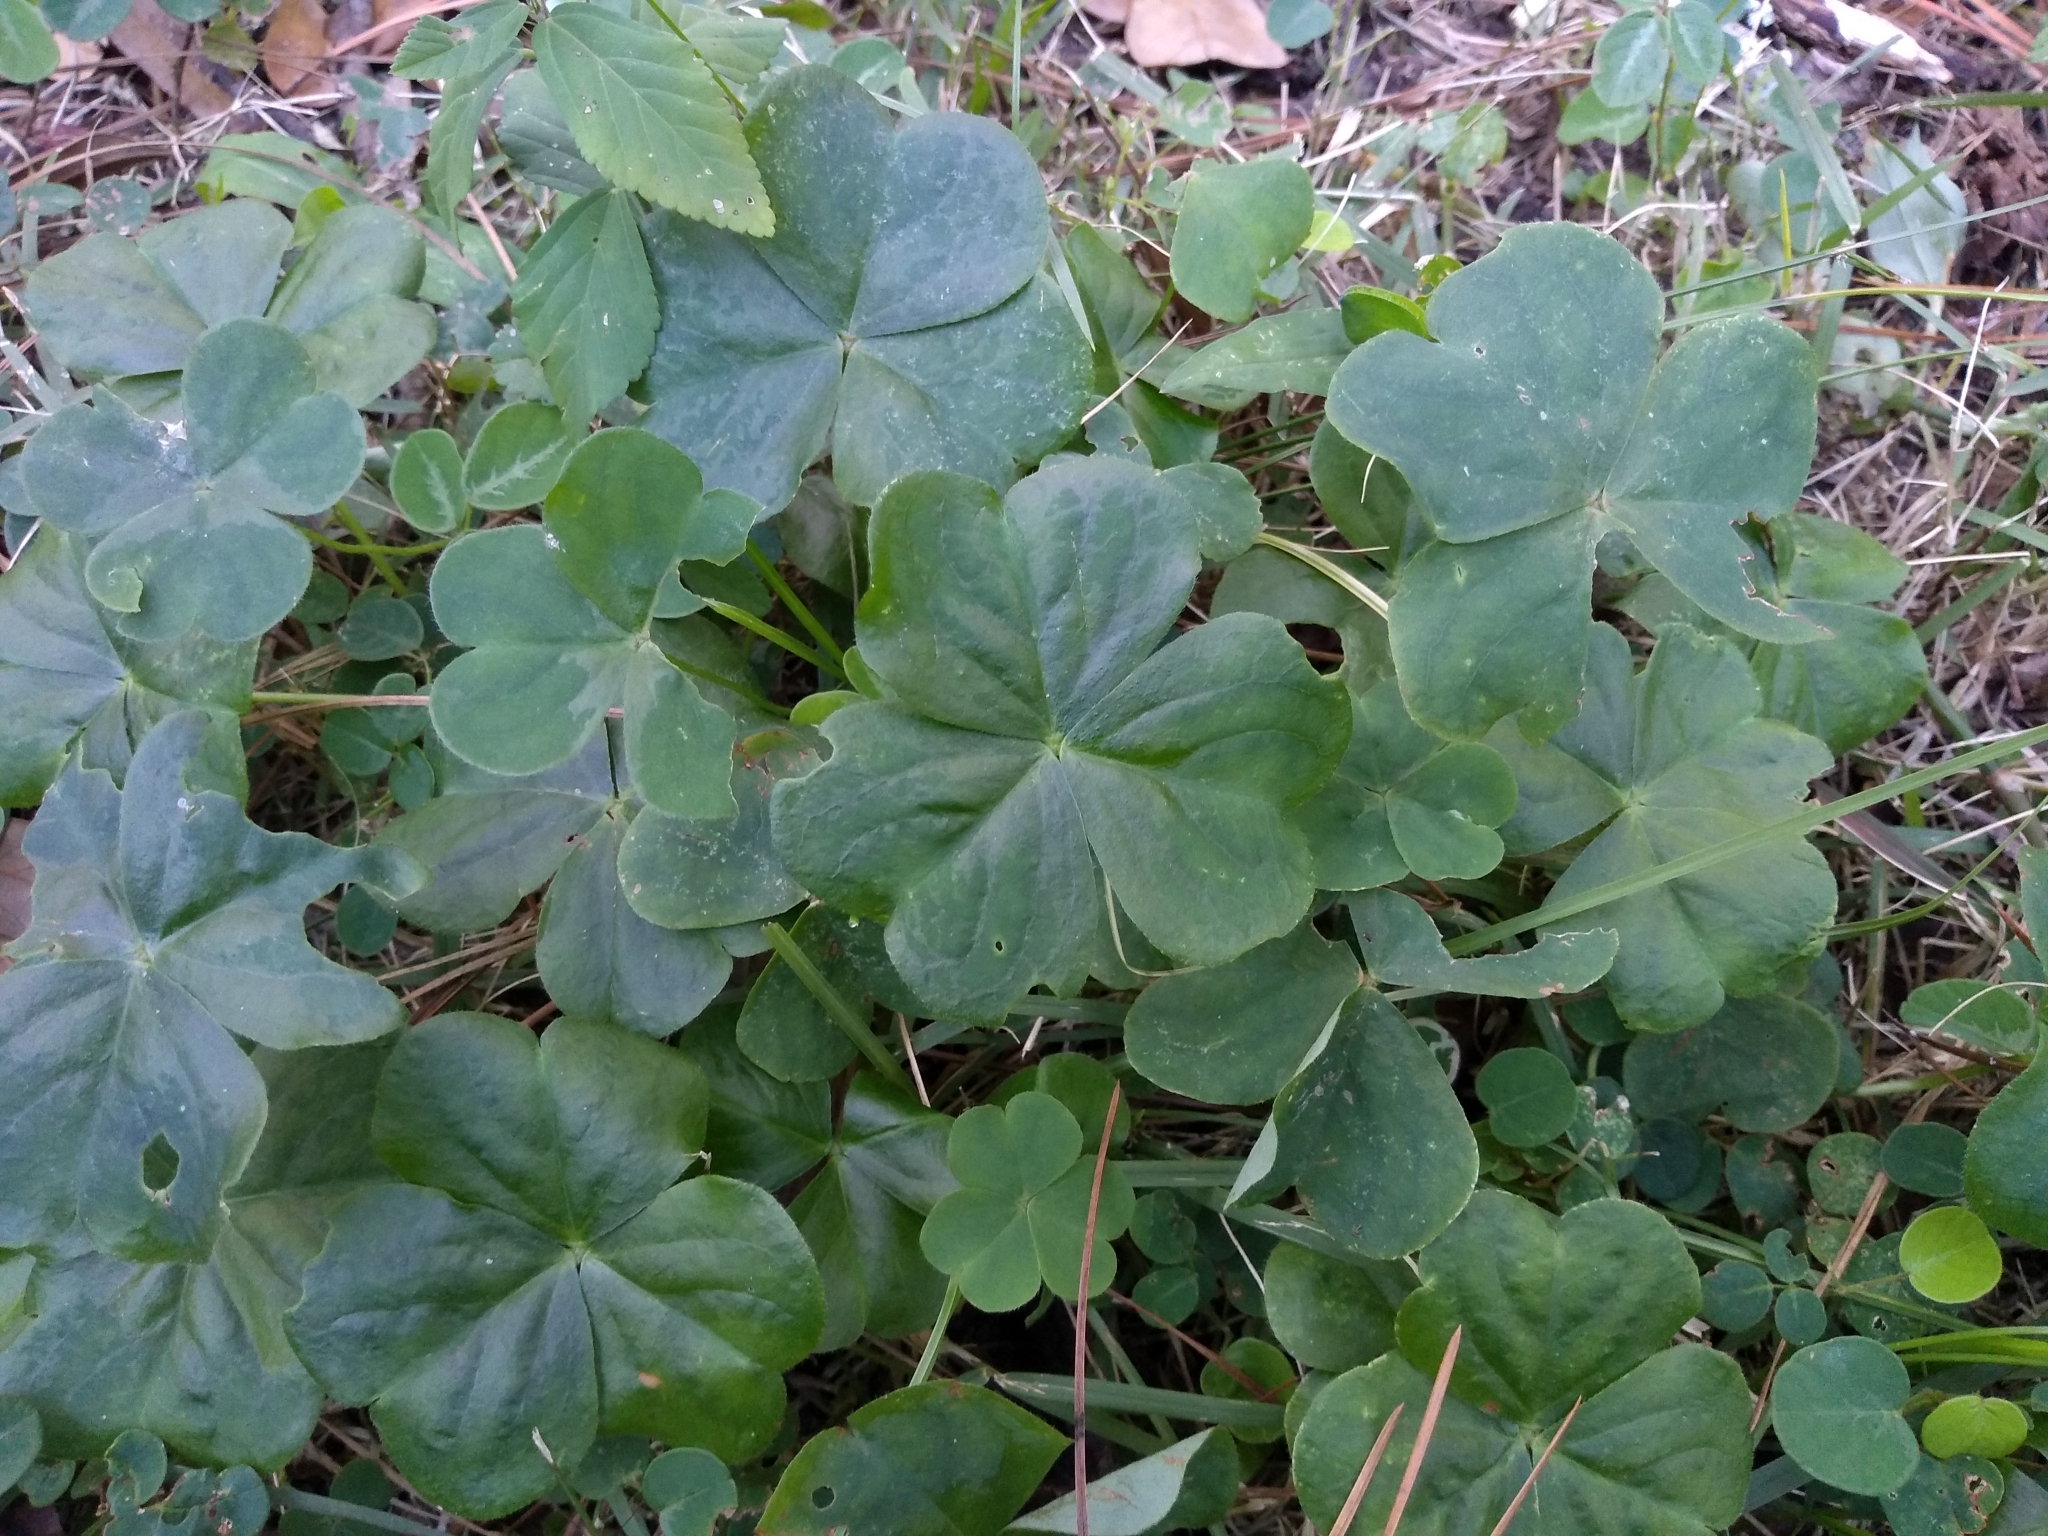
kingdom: Plantae
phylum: Tracheophyta
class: Magnoliopsida
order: Oxalidales
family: Oxalidaceae
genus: Oxalis
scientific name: Oxalis debilis
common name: Large-flowered pink-sorrel
